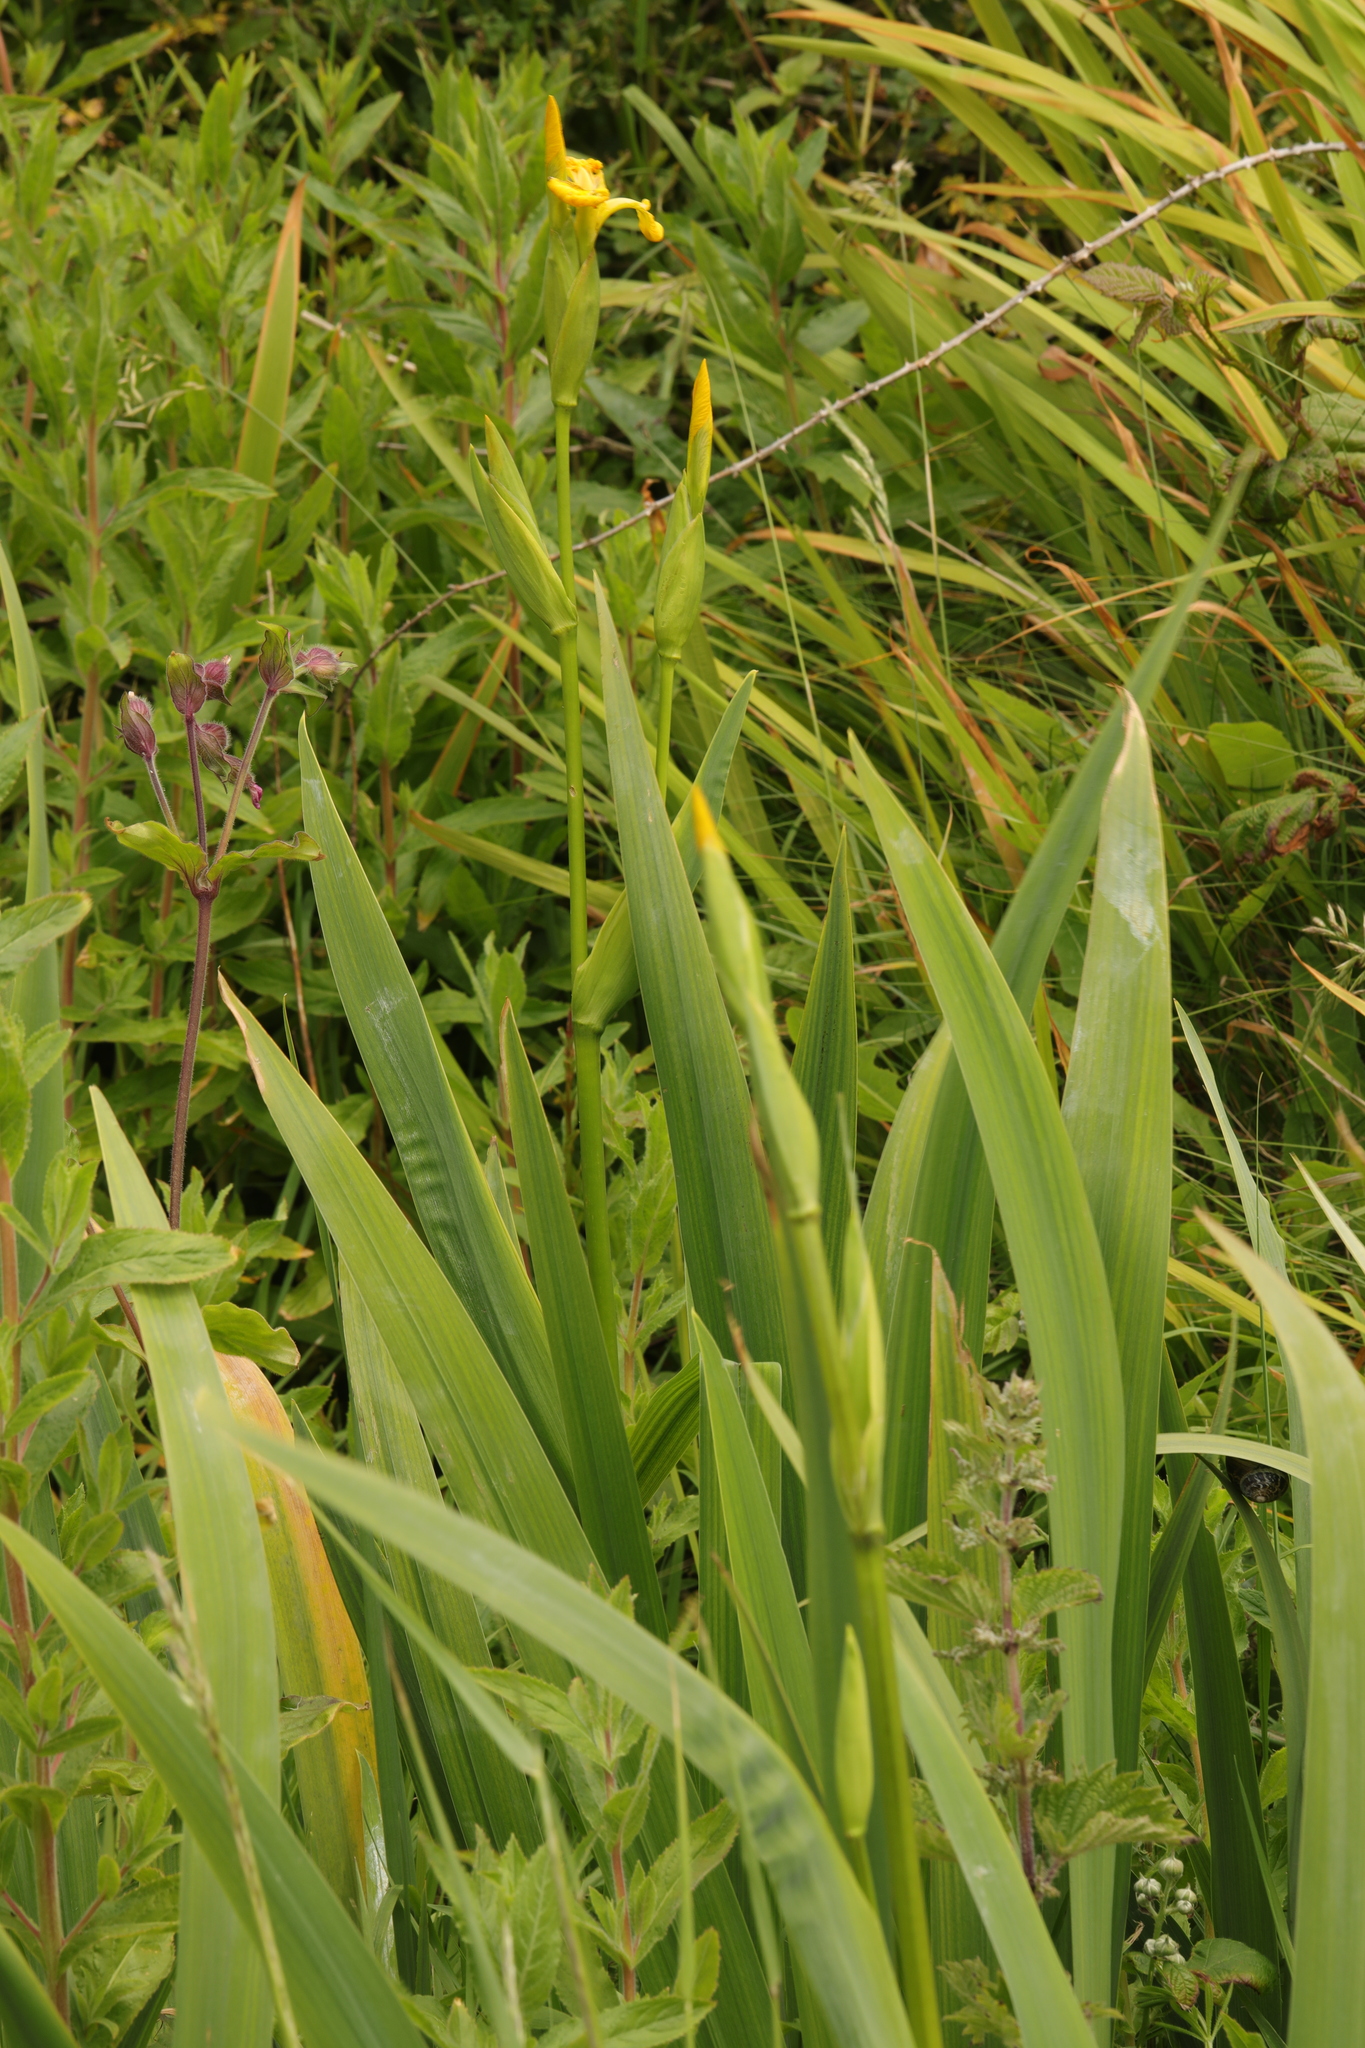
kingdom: Plantae
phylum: Tracheophyta
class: Liliopsida
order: Asparagales
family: Iridaceae
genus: Iris
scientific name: Iris pseudacorus
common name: Yellow flag
